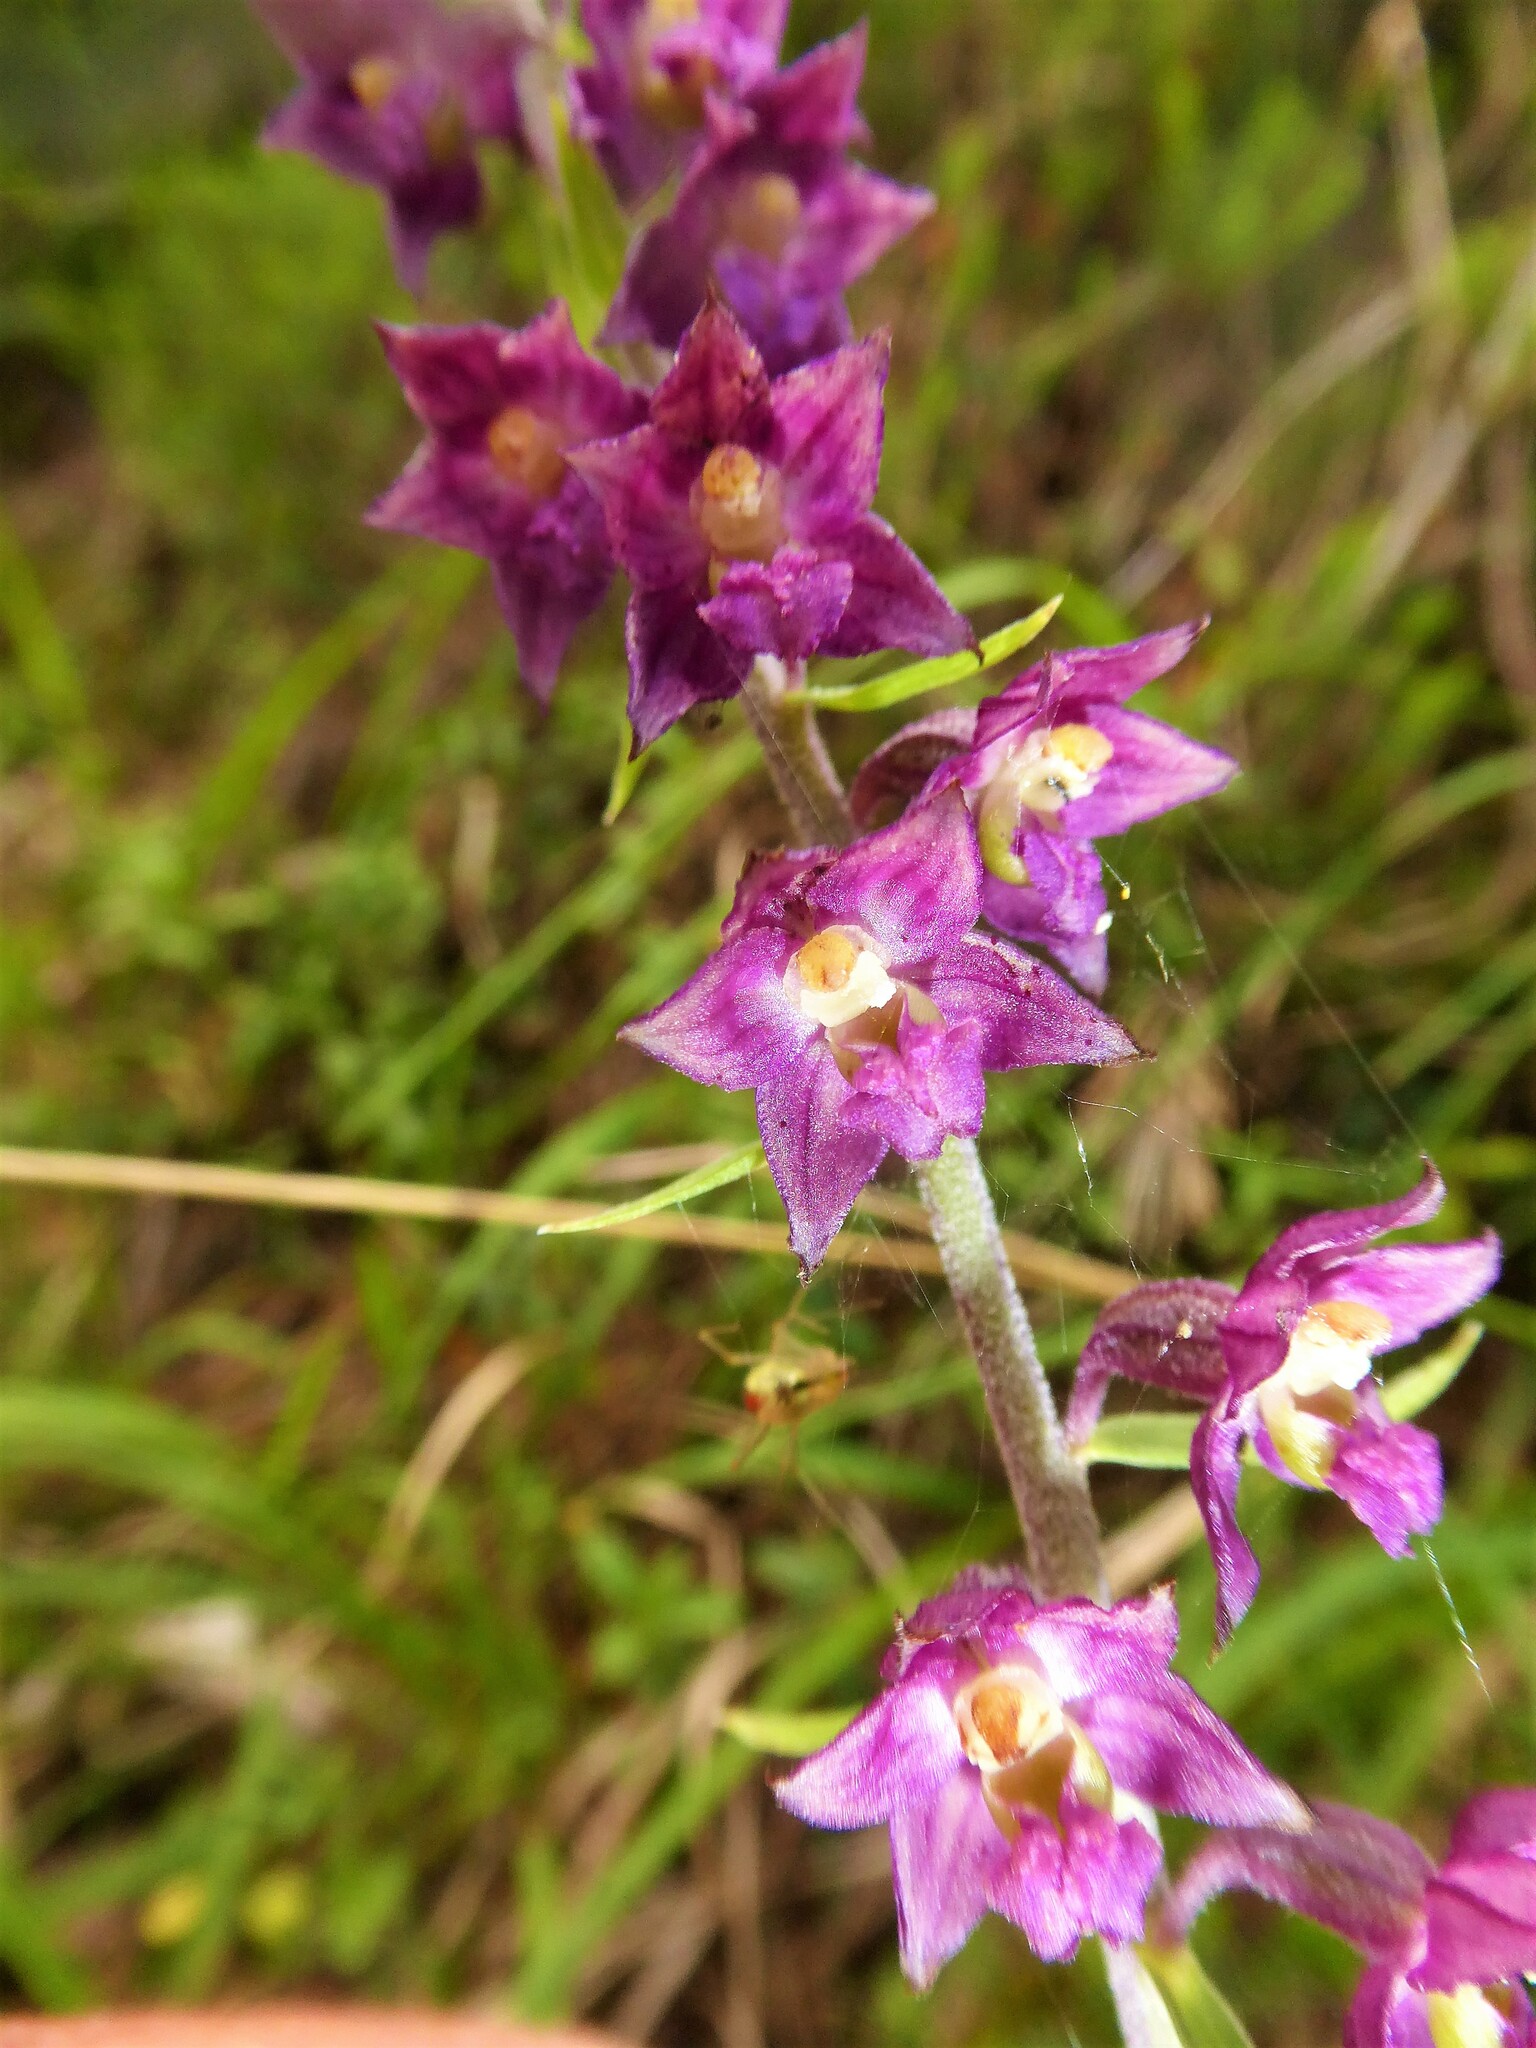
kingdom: Plantae
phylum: Tracheophyta
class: Liliopsida
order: Asparagales
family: Orchidaceae
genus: Epipactis
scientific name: Epipactis atrorubens
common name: Dark-red helleborine
